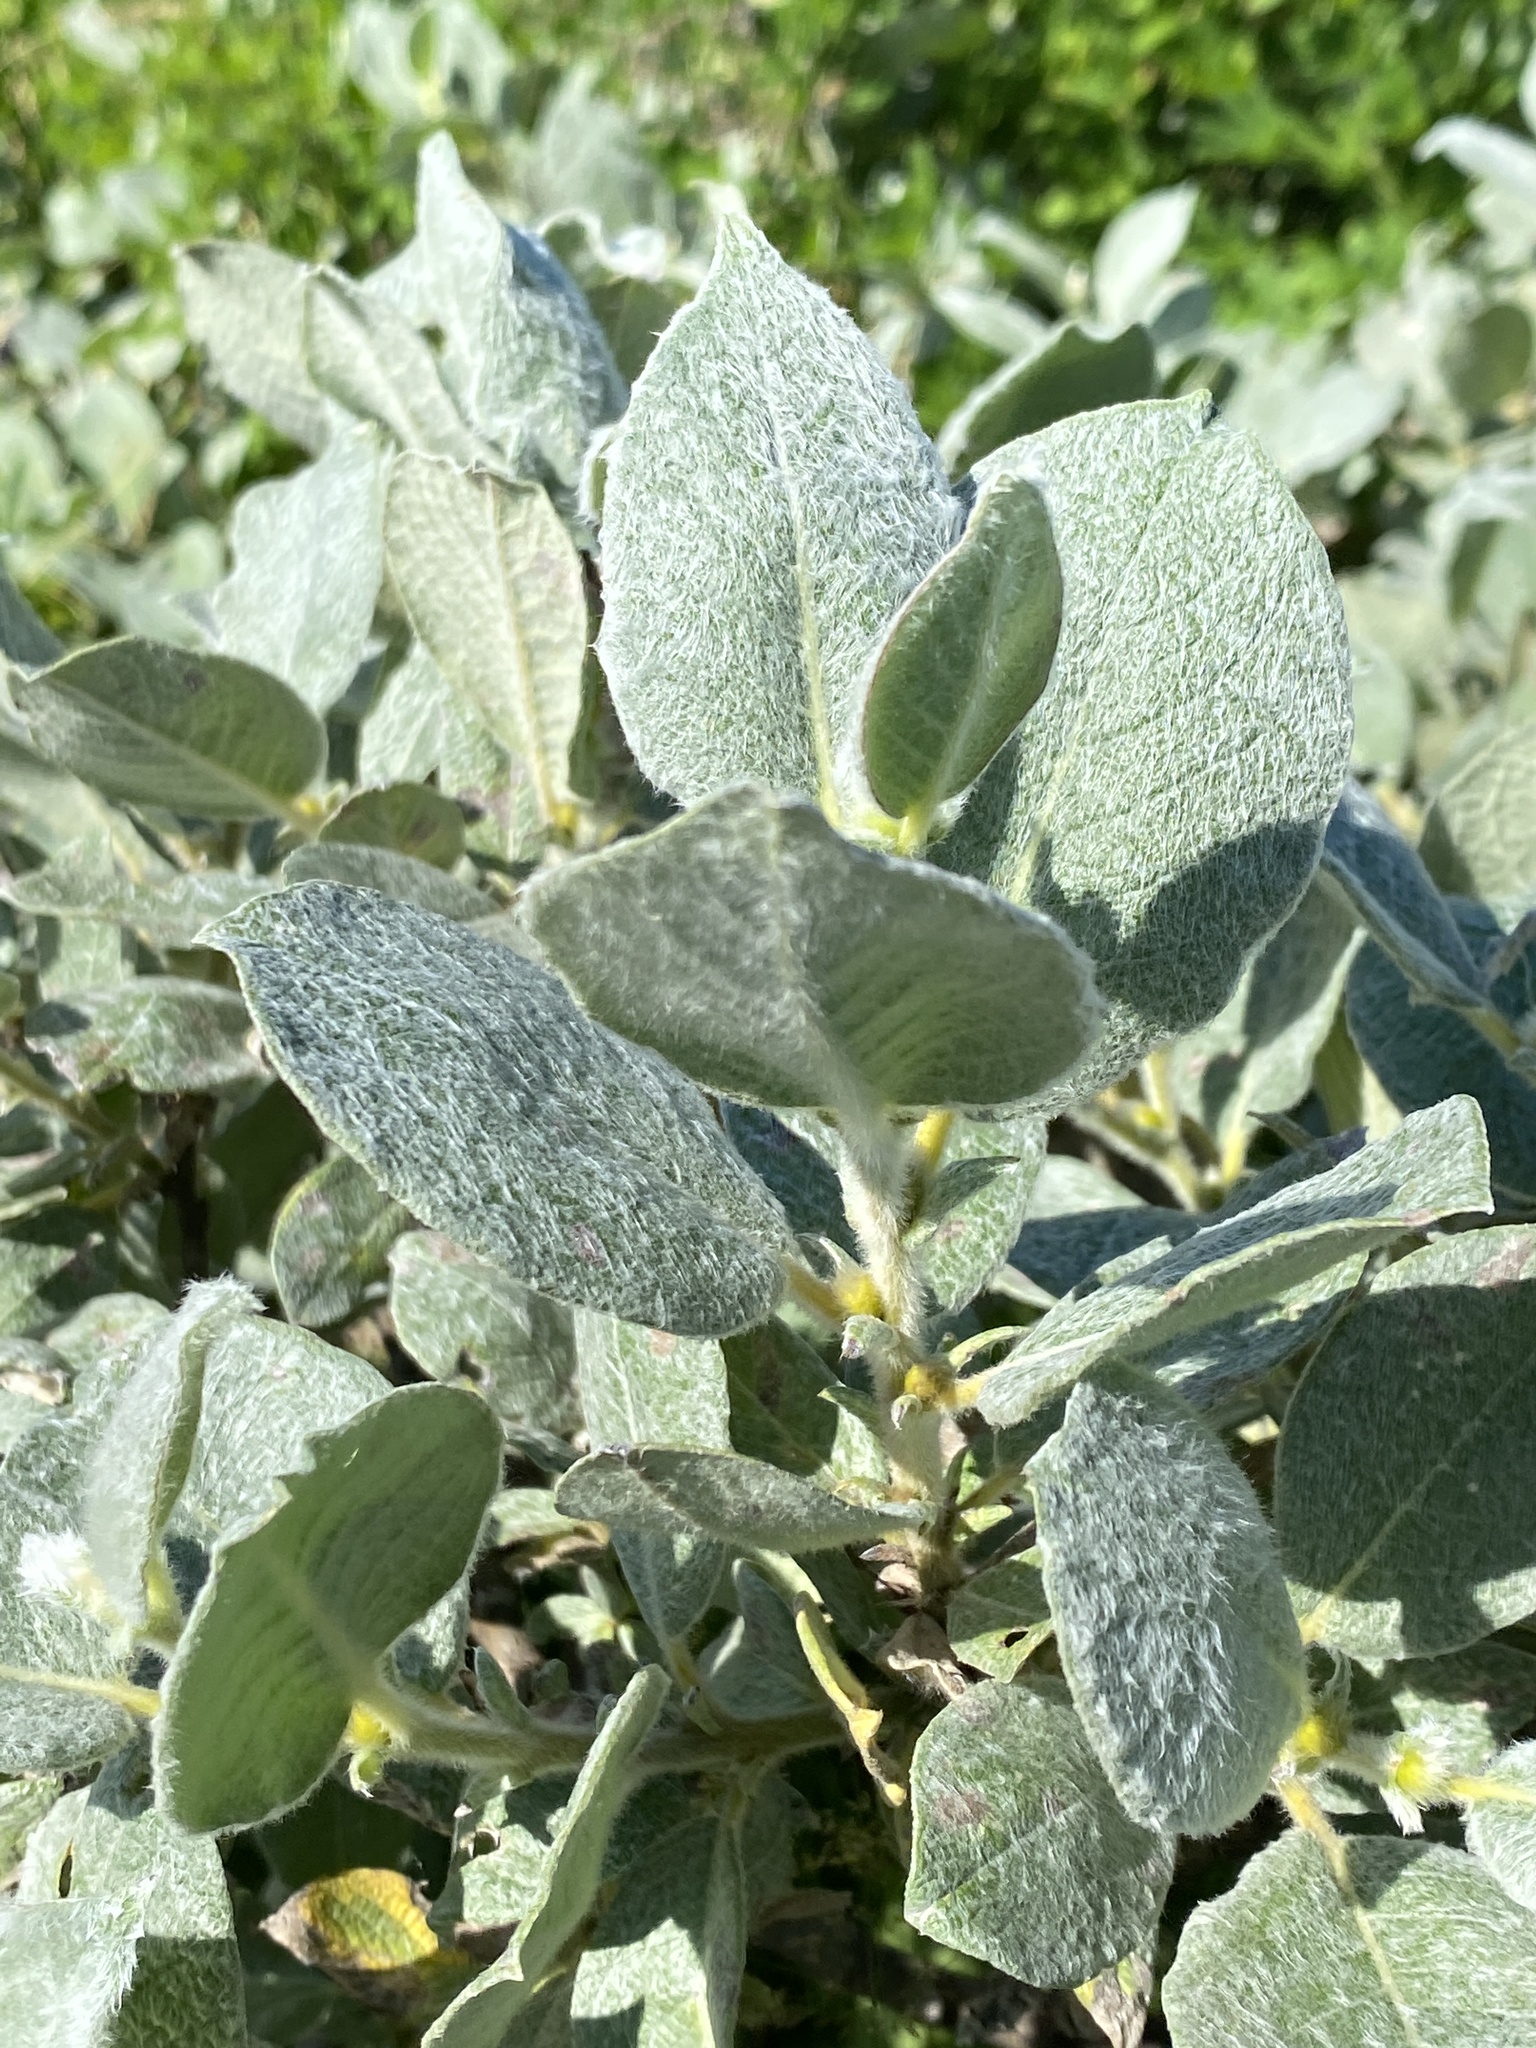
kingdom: Plantae
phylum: Tracheophyta
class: Magnoliopsida
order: Malpighiales
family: Salicaceae
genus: Salix
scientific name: Salix lanata
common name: Woolly willow
